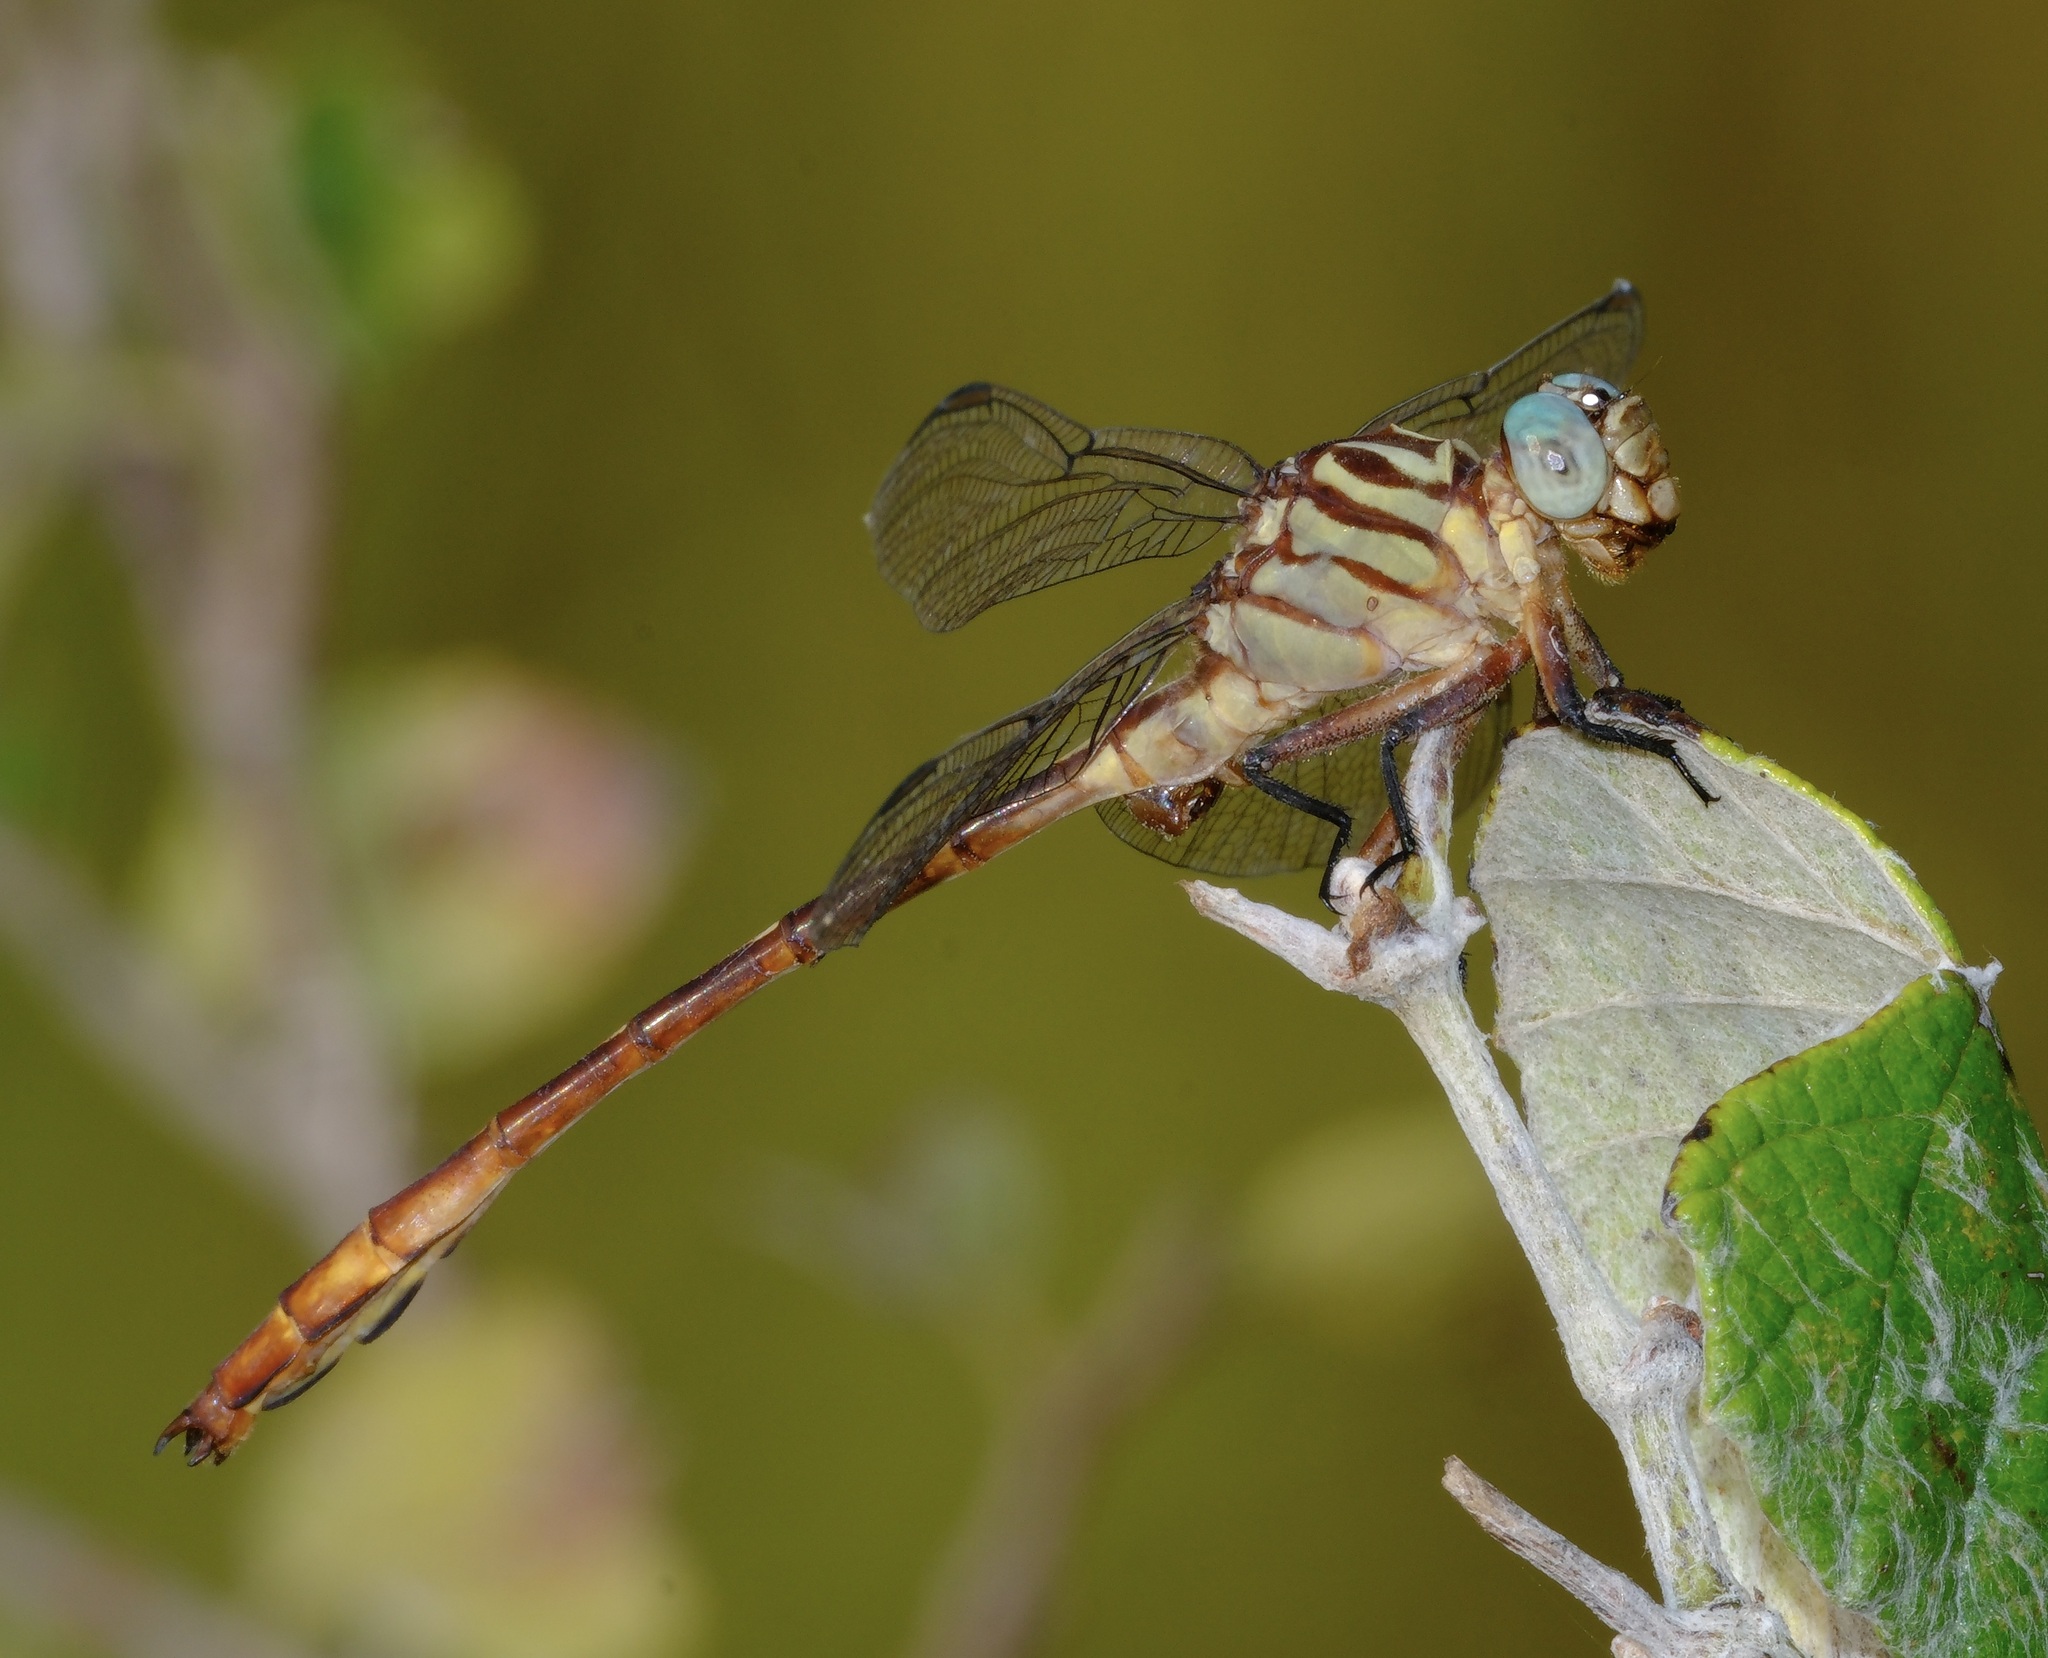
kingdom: Animalia
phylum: Arthropoda
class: Insecta
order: Odonata
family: Gomphidae
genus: Stylurus
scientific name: Stylurus plagiatus
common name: Russet-tipped clubtail
